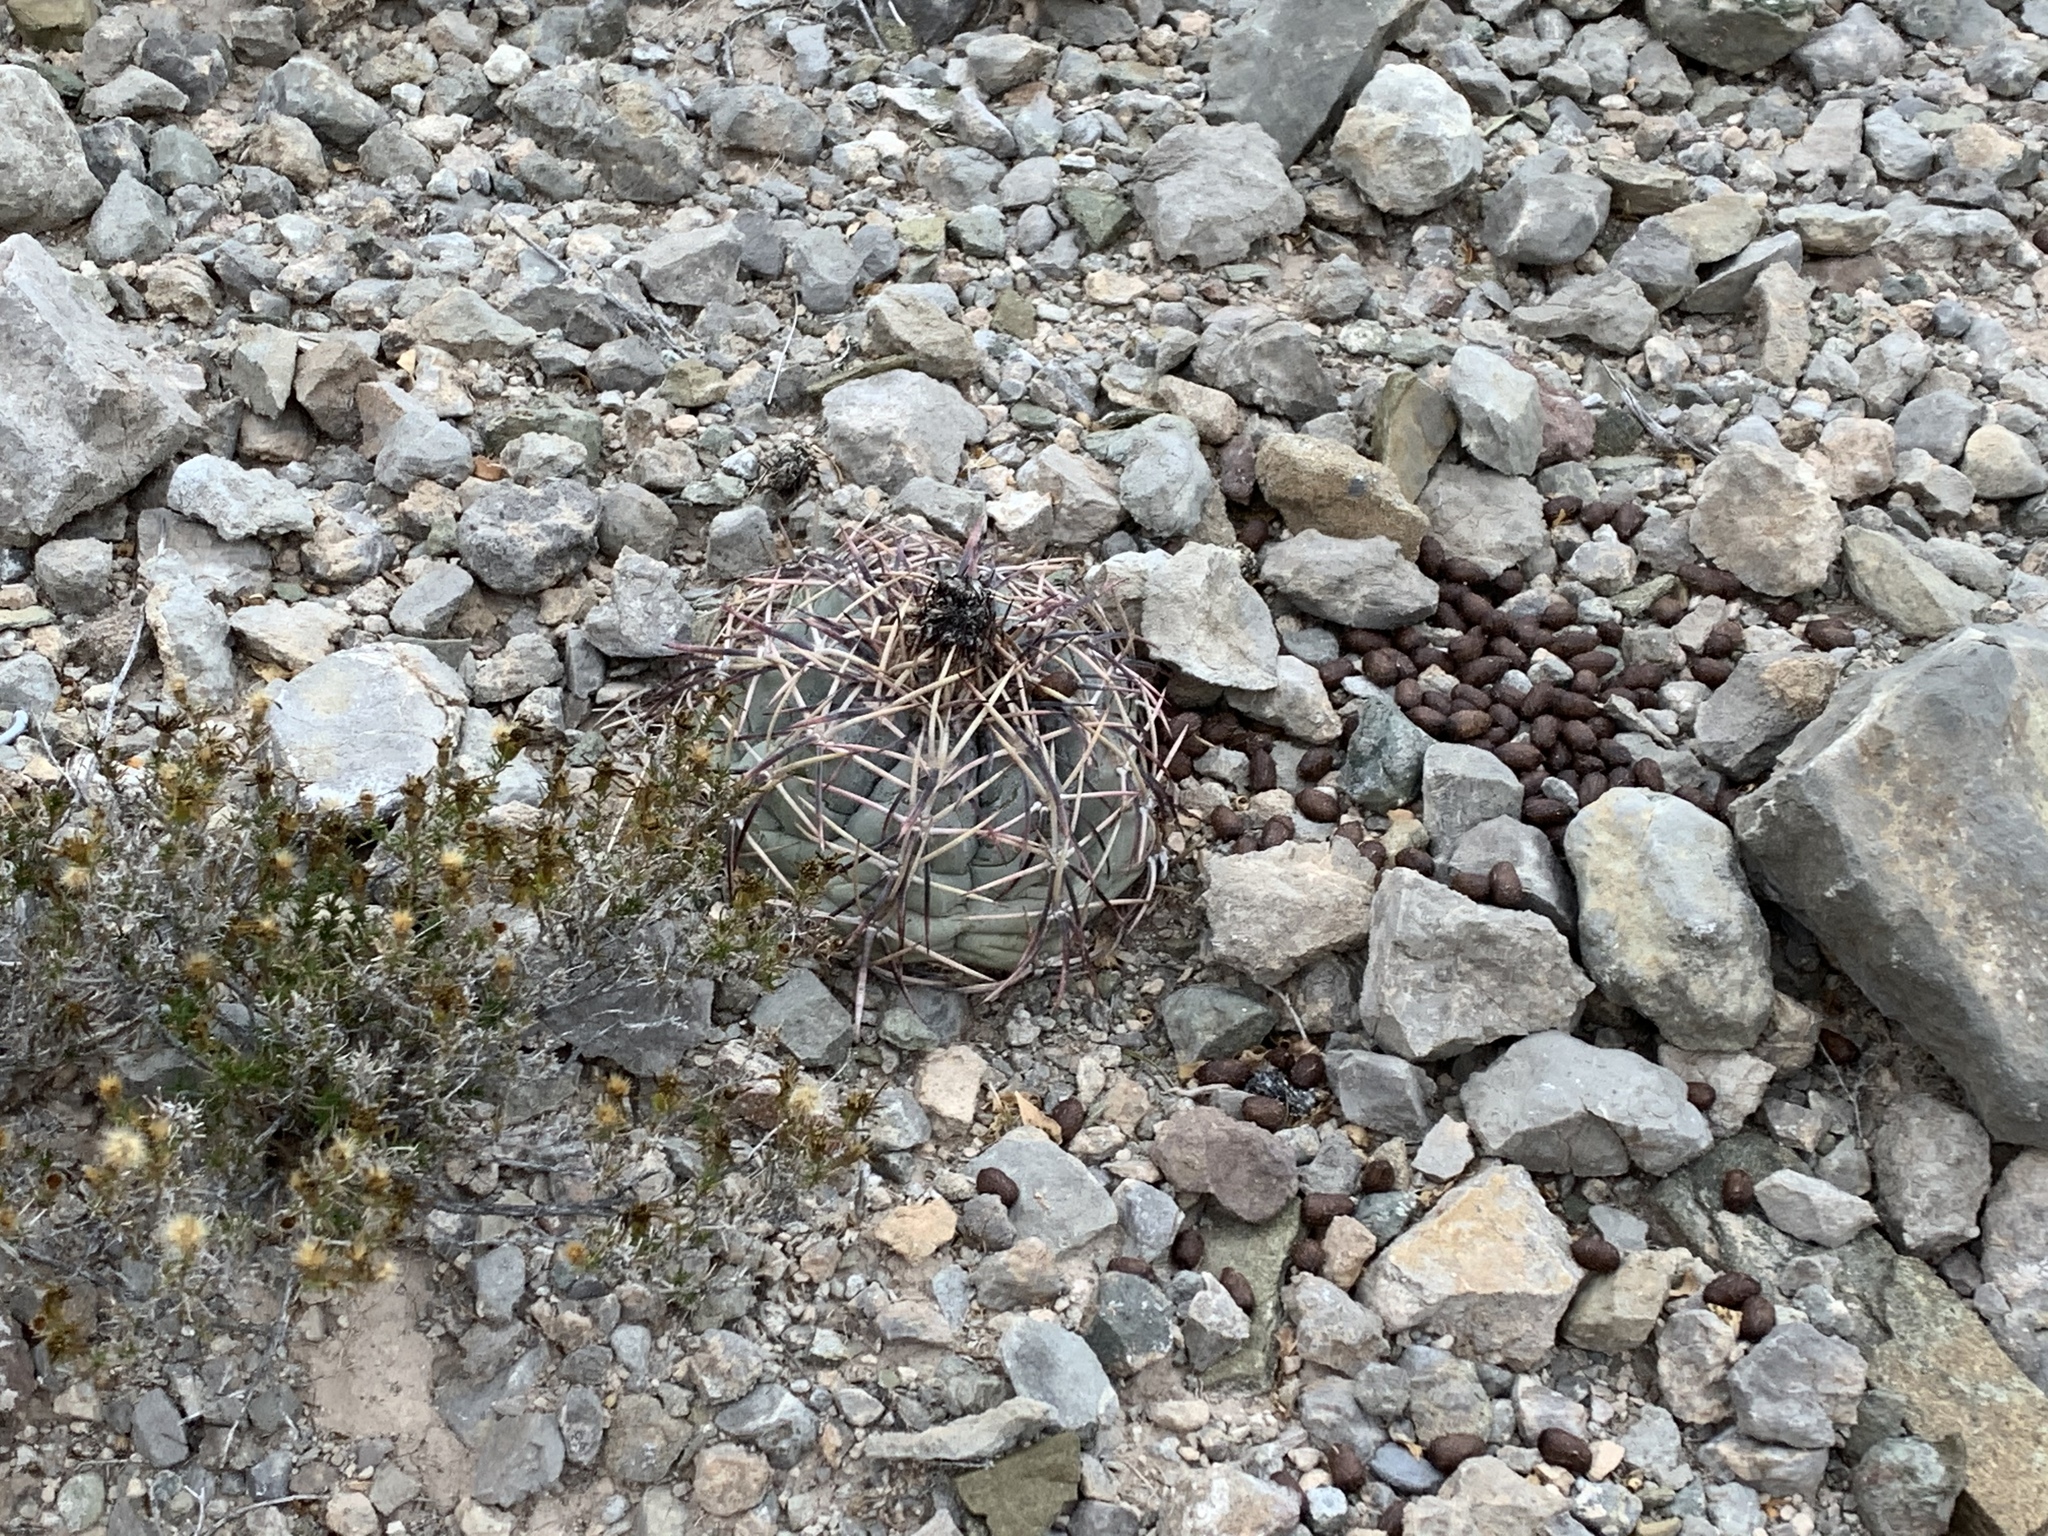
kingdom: Plantae
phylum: Tracheophyta
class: Magnoliopsida
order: Caryophyllales
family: Cactaceae
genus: Echinocactus
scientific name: Echinocactus horizonthalonius
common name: Devilshead
